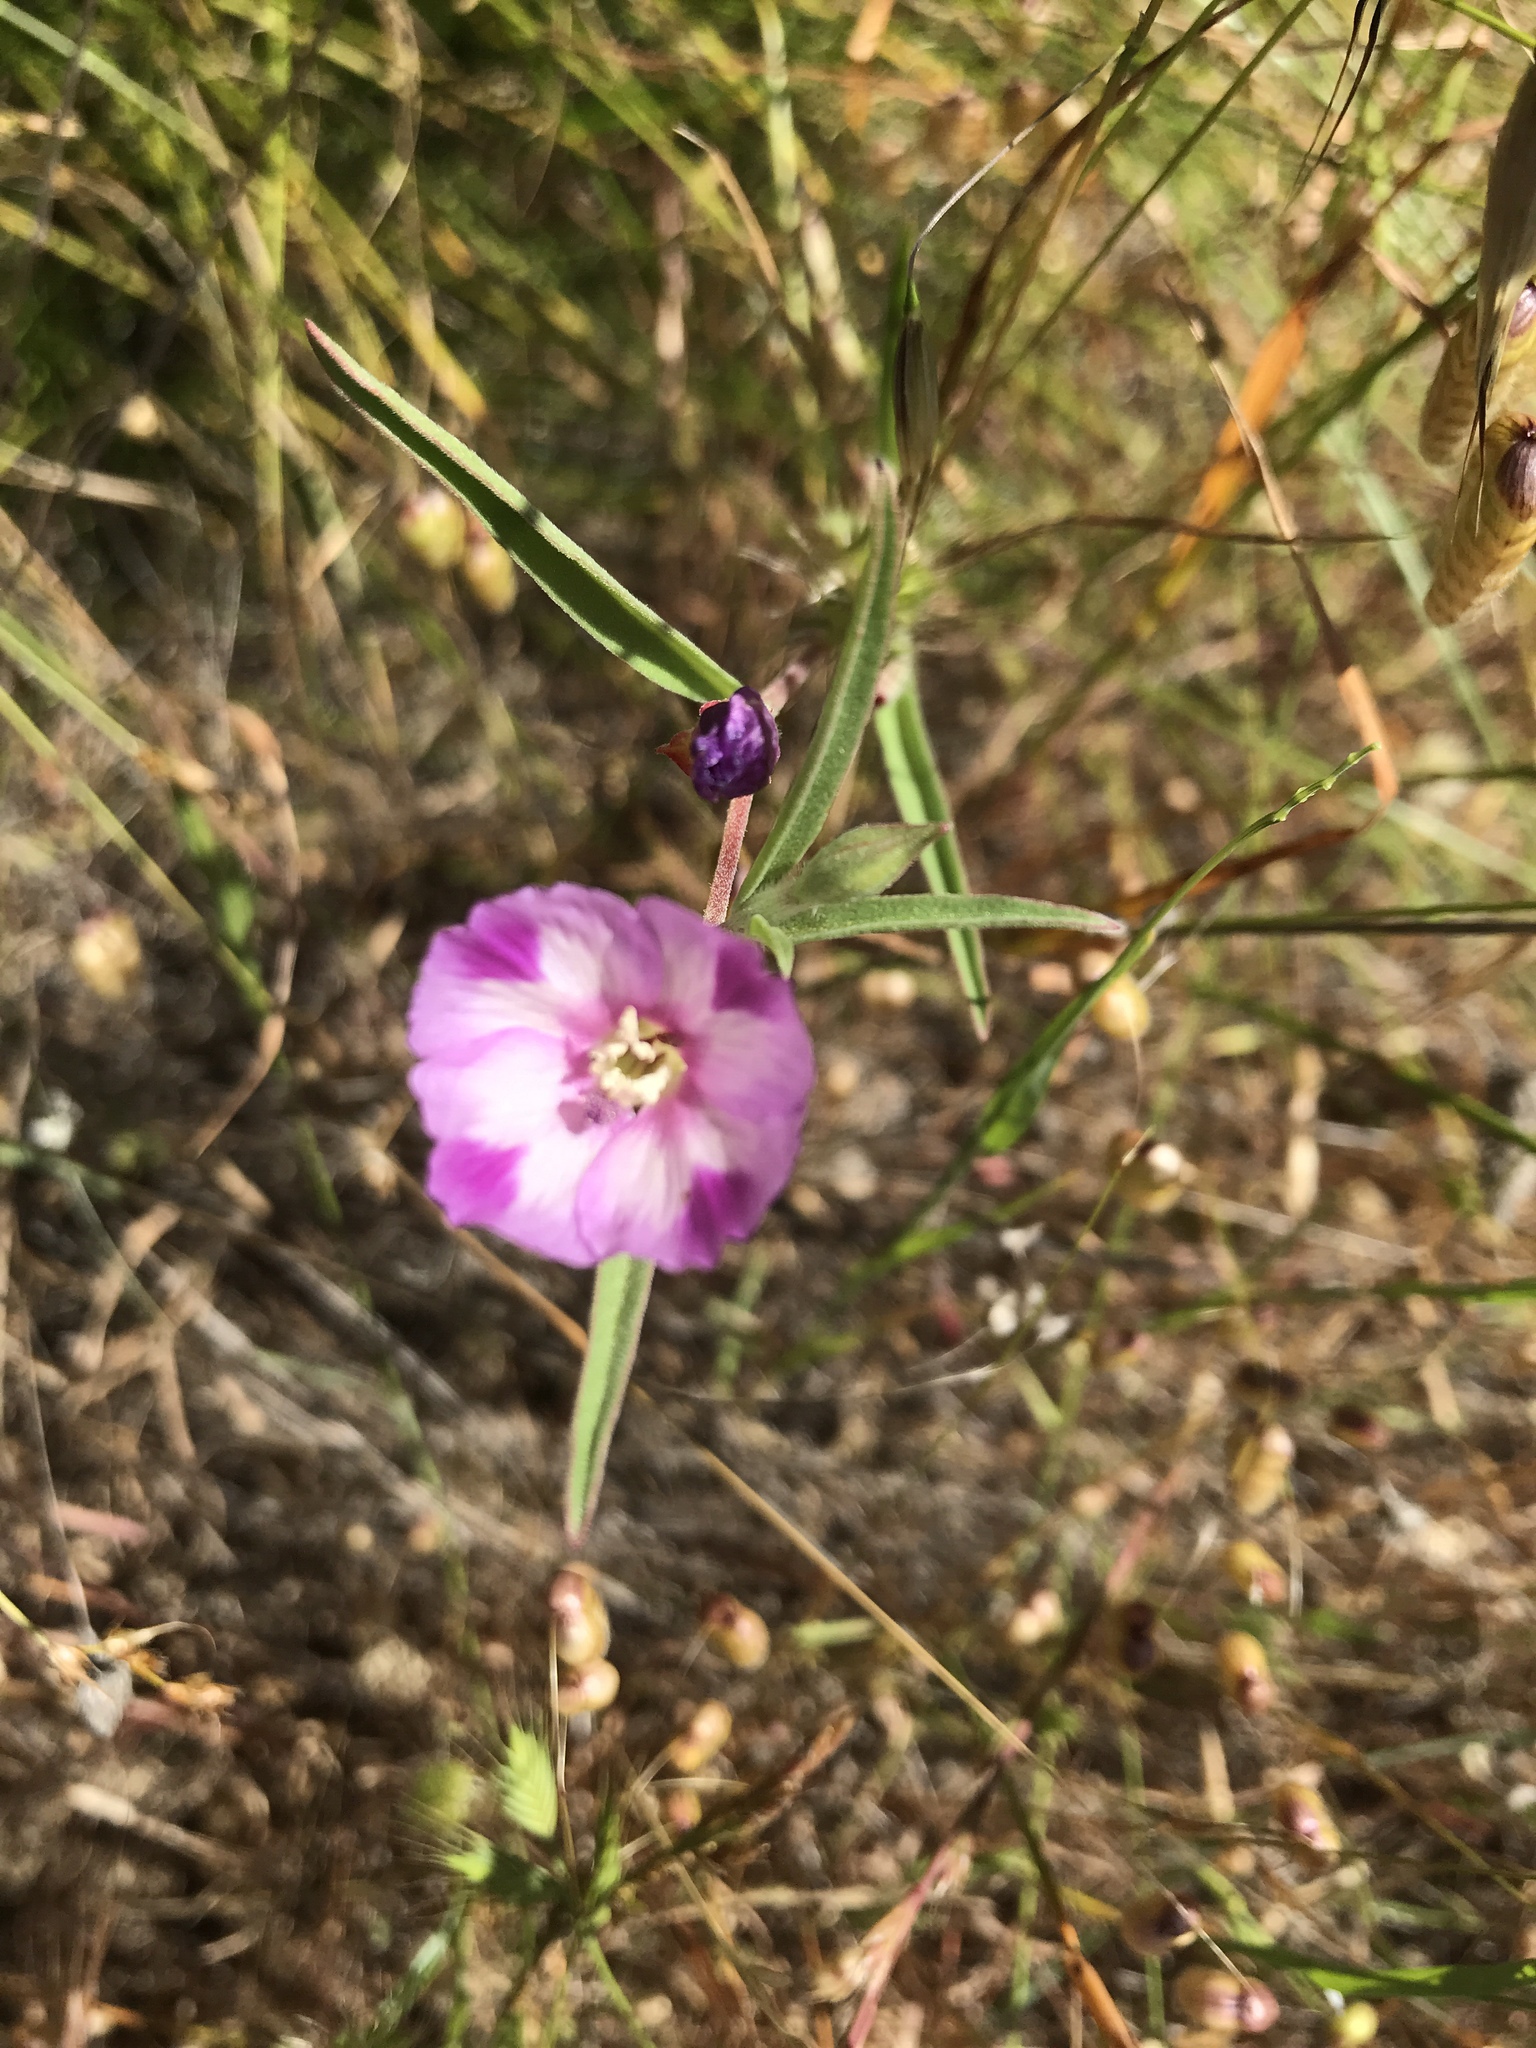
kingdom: Plantae
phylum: Tracheophyta
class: Magnoliopsida
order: Myrtales
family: Onagraceae
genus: Clarkia
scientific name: Clarkia purpurea
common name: Purple clarkia
